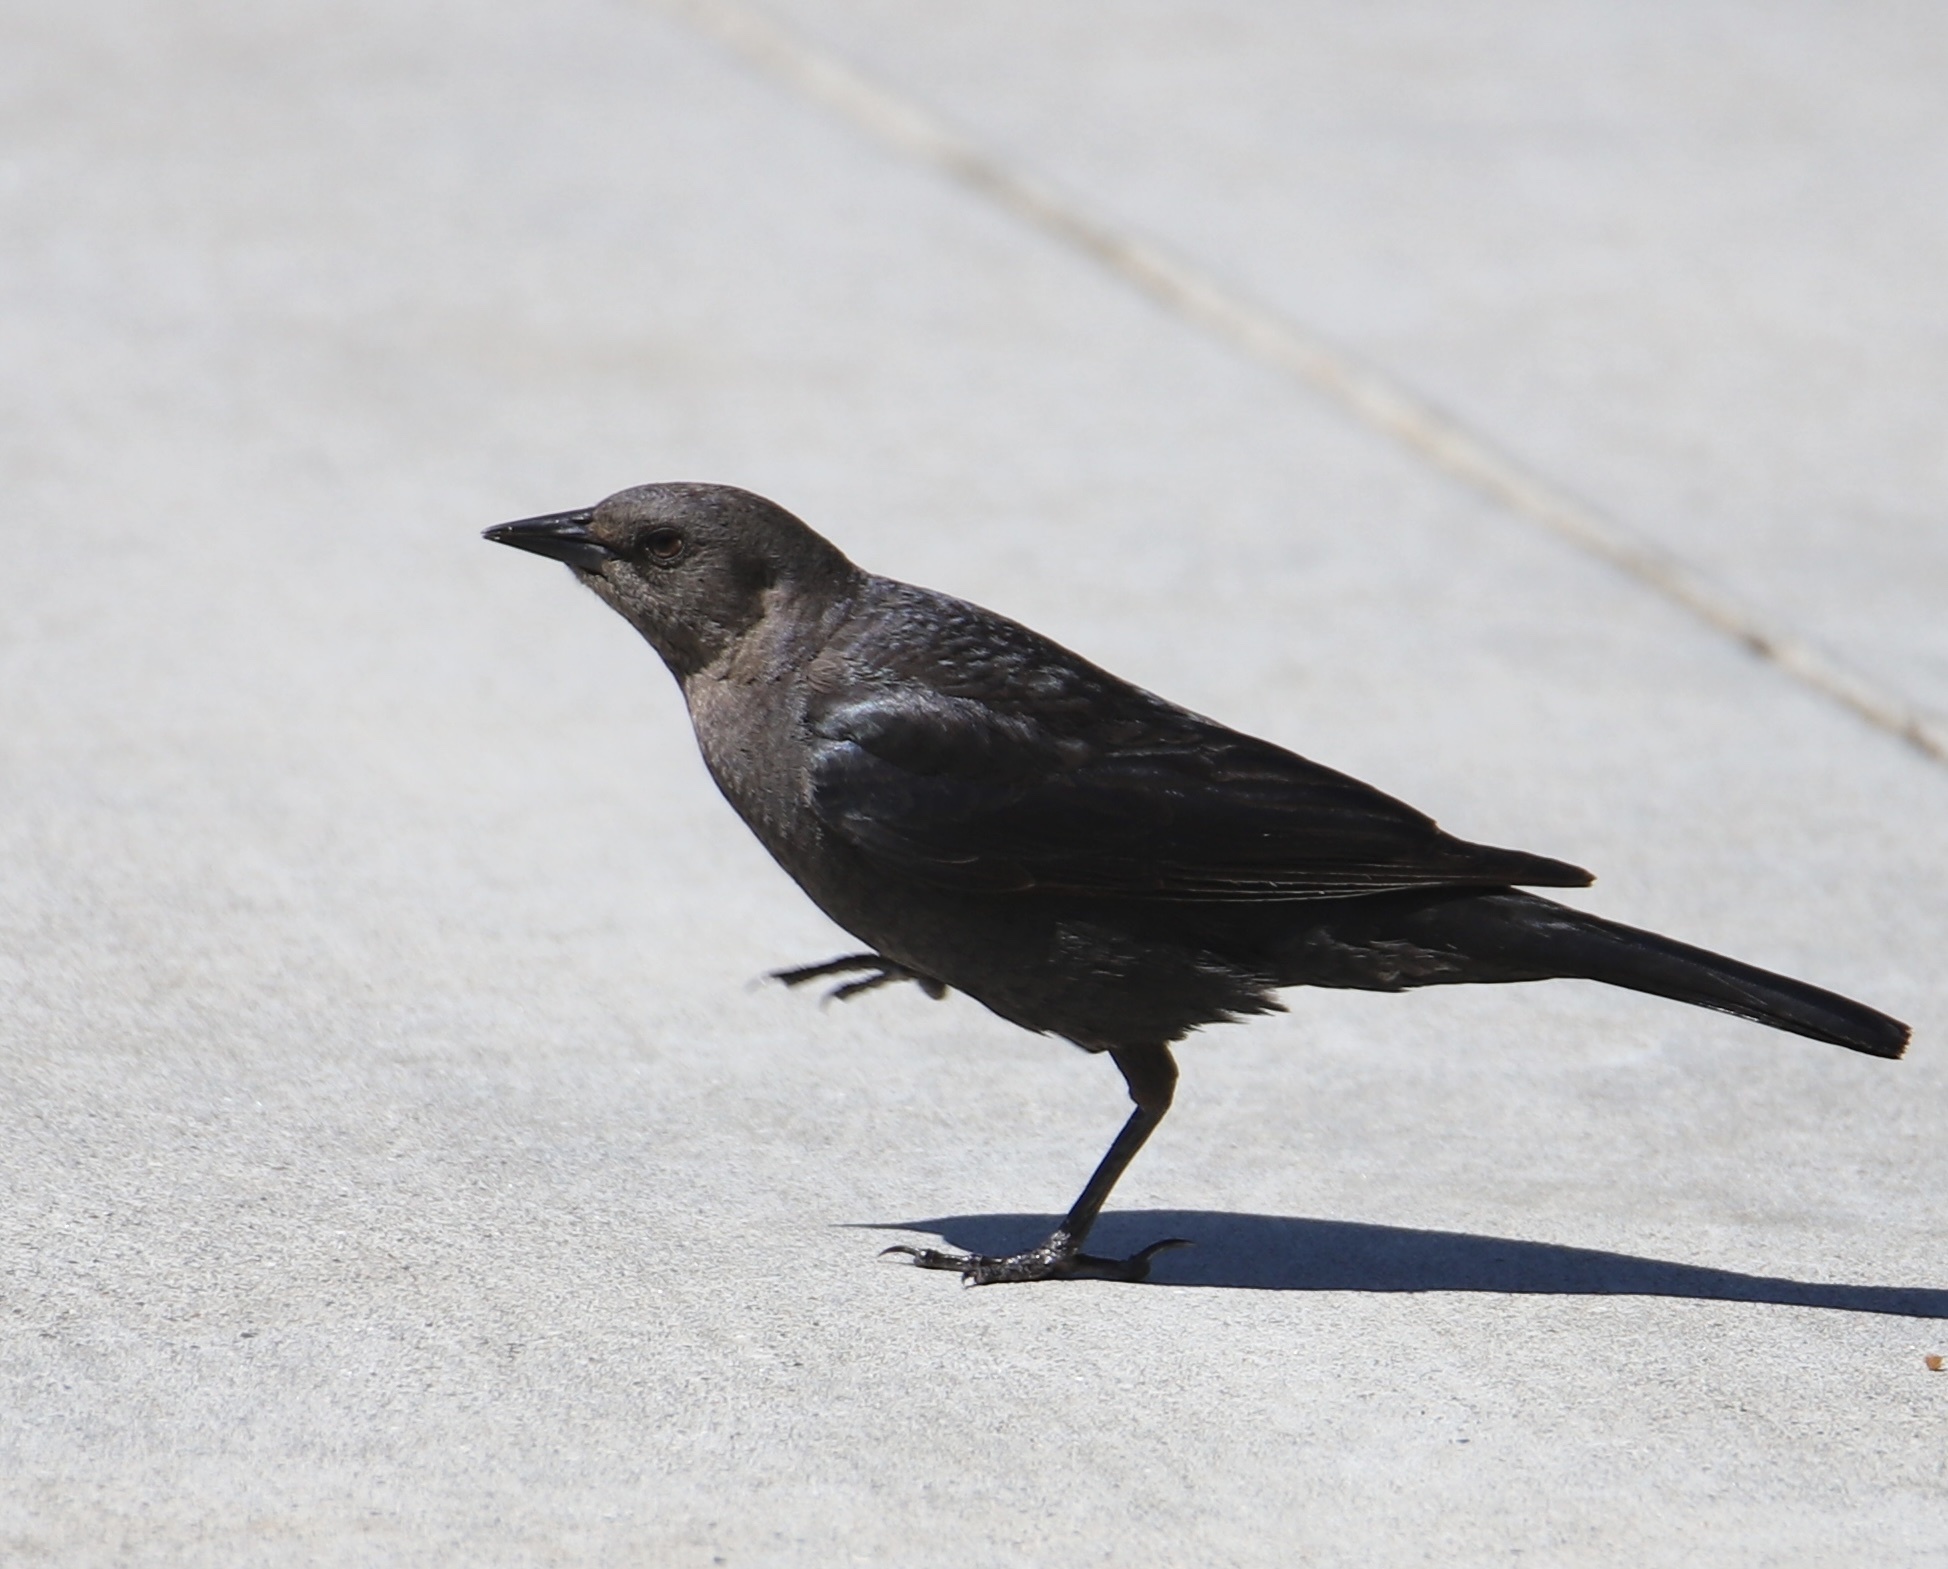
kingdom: Animalia
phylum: Chordata
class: Aves
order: Passeriformes
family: Icteridae
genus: Euphagus
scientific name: Euphagus cyanocephalus
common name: Brewer's blackbird
